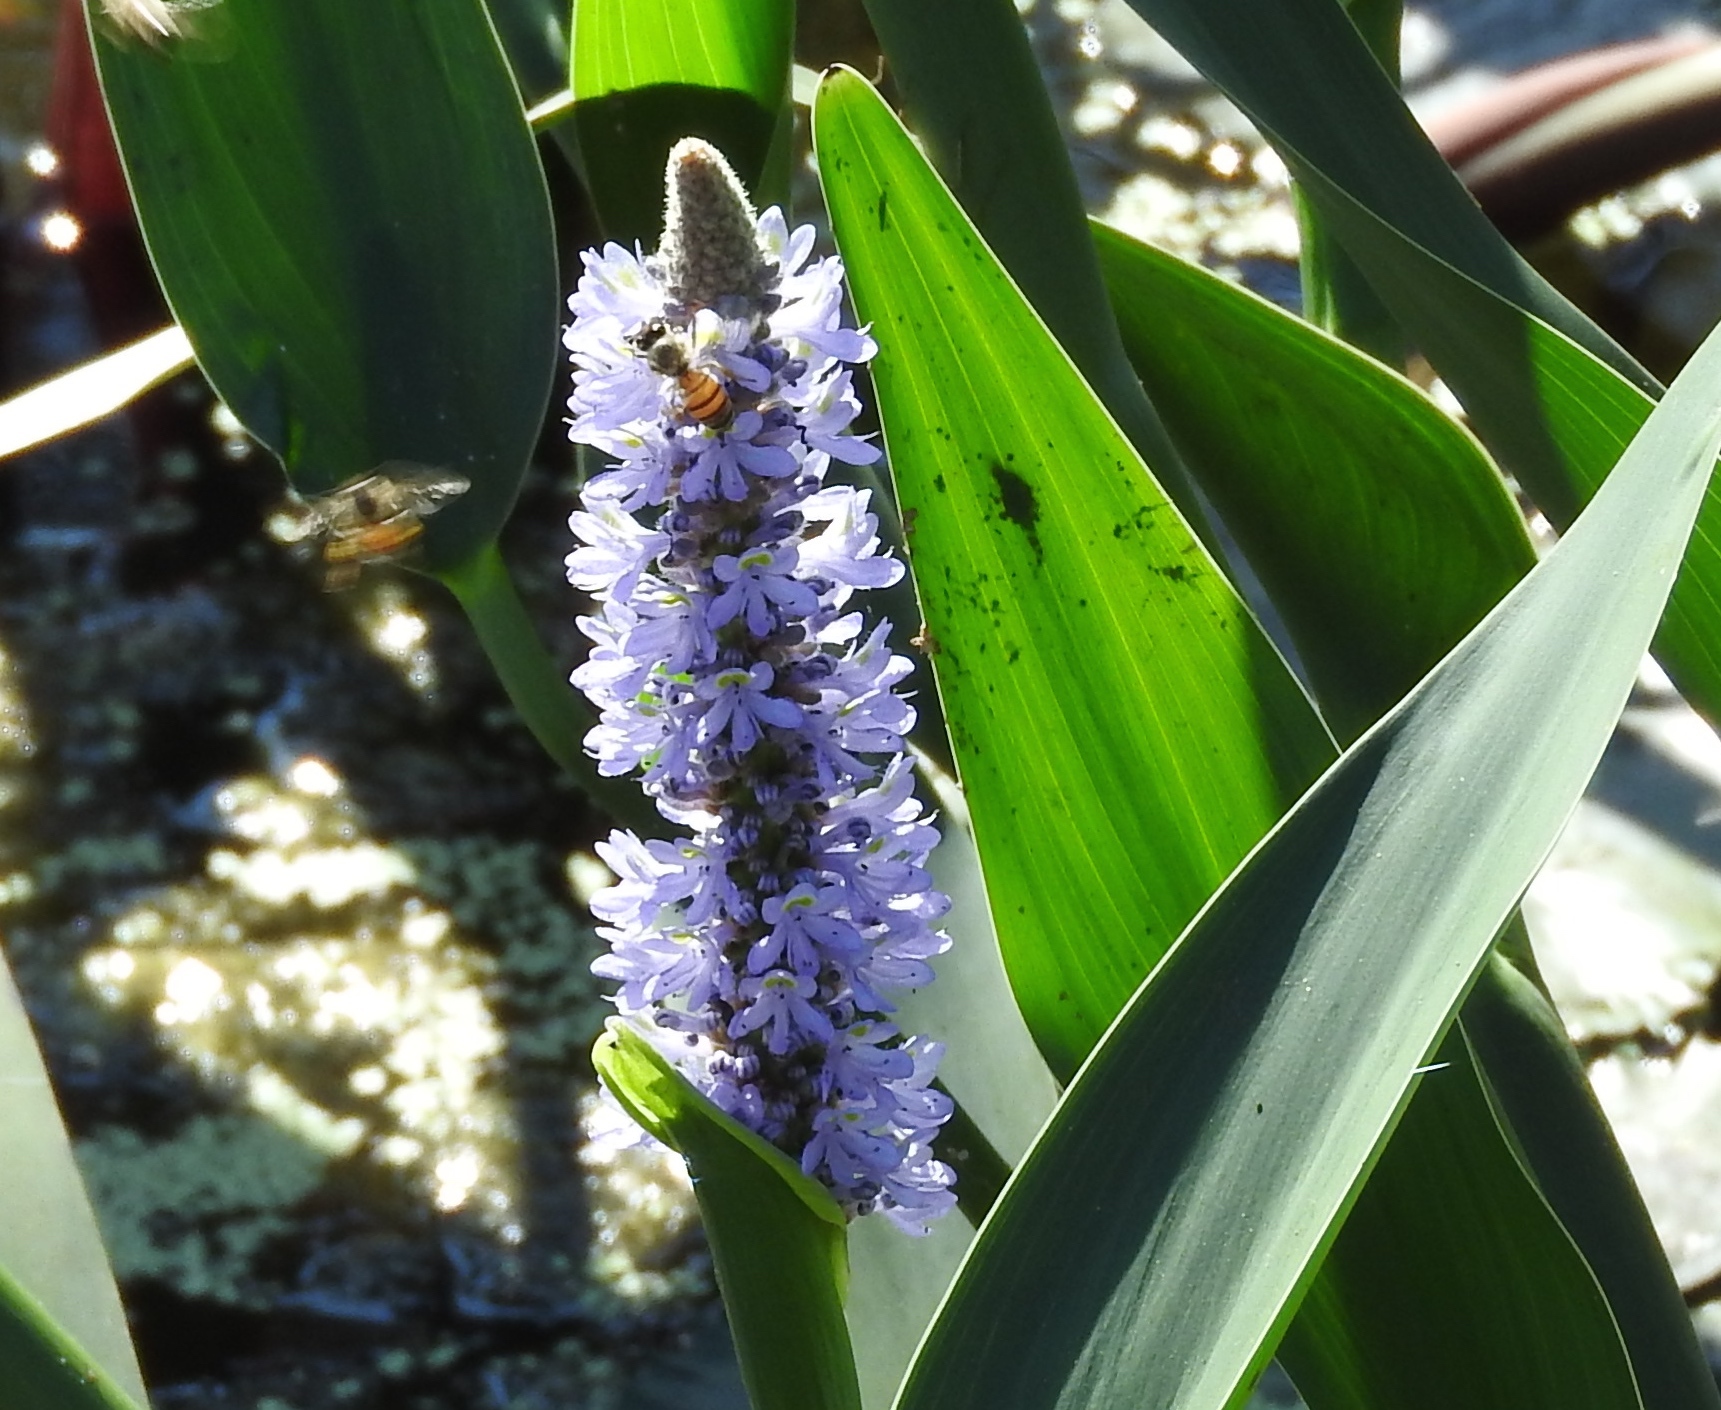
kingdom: Plantae
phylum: Tracheophyta
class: Liliopsida
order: Commelinales
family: Pontederiaceae
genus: Pontederia
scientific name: Pontederia cordata
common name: Pickerelweed
